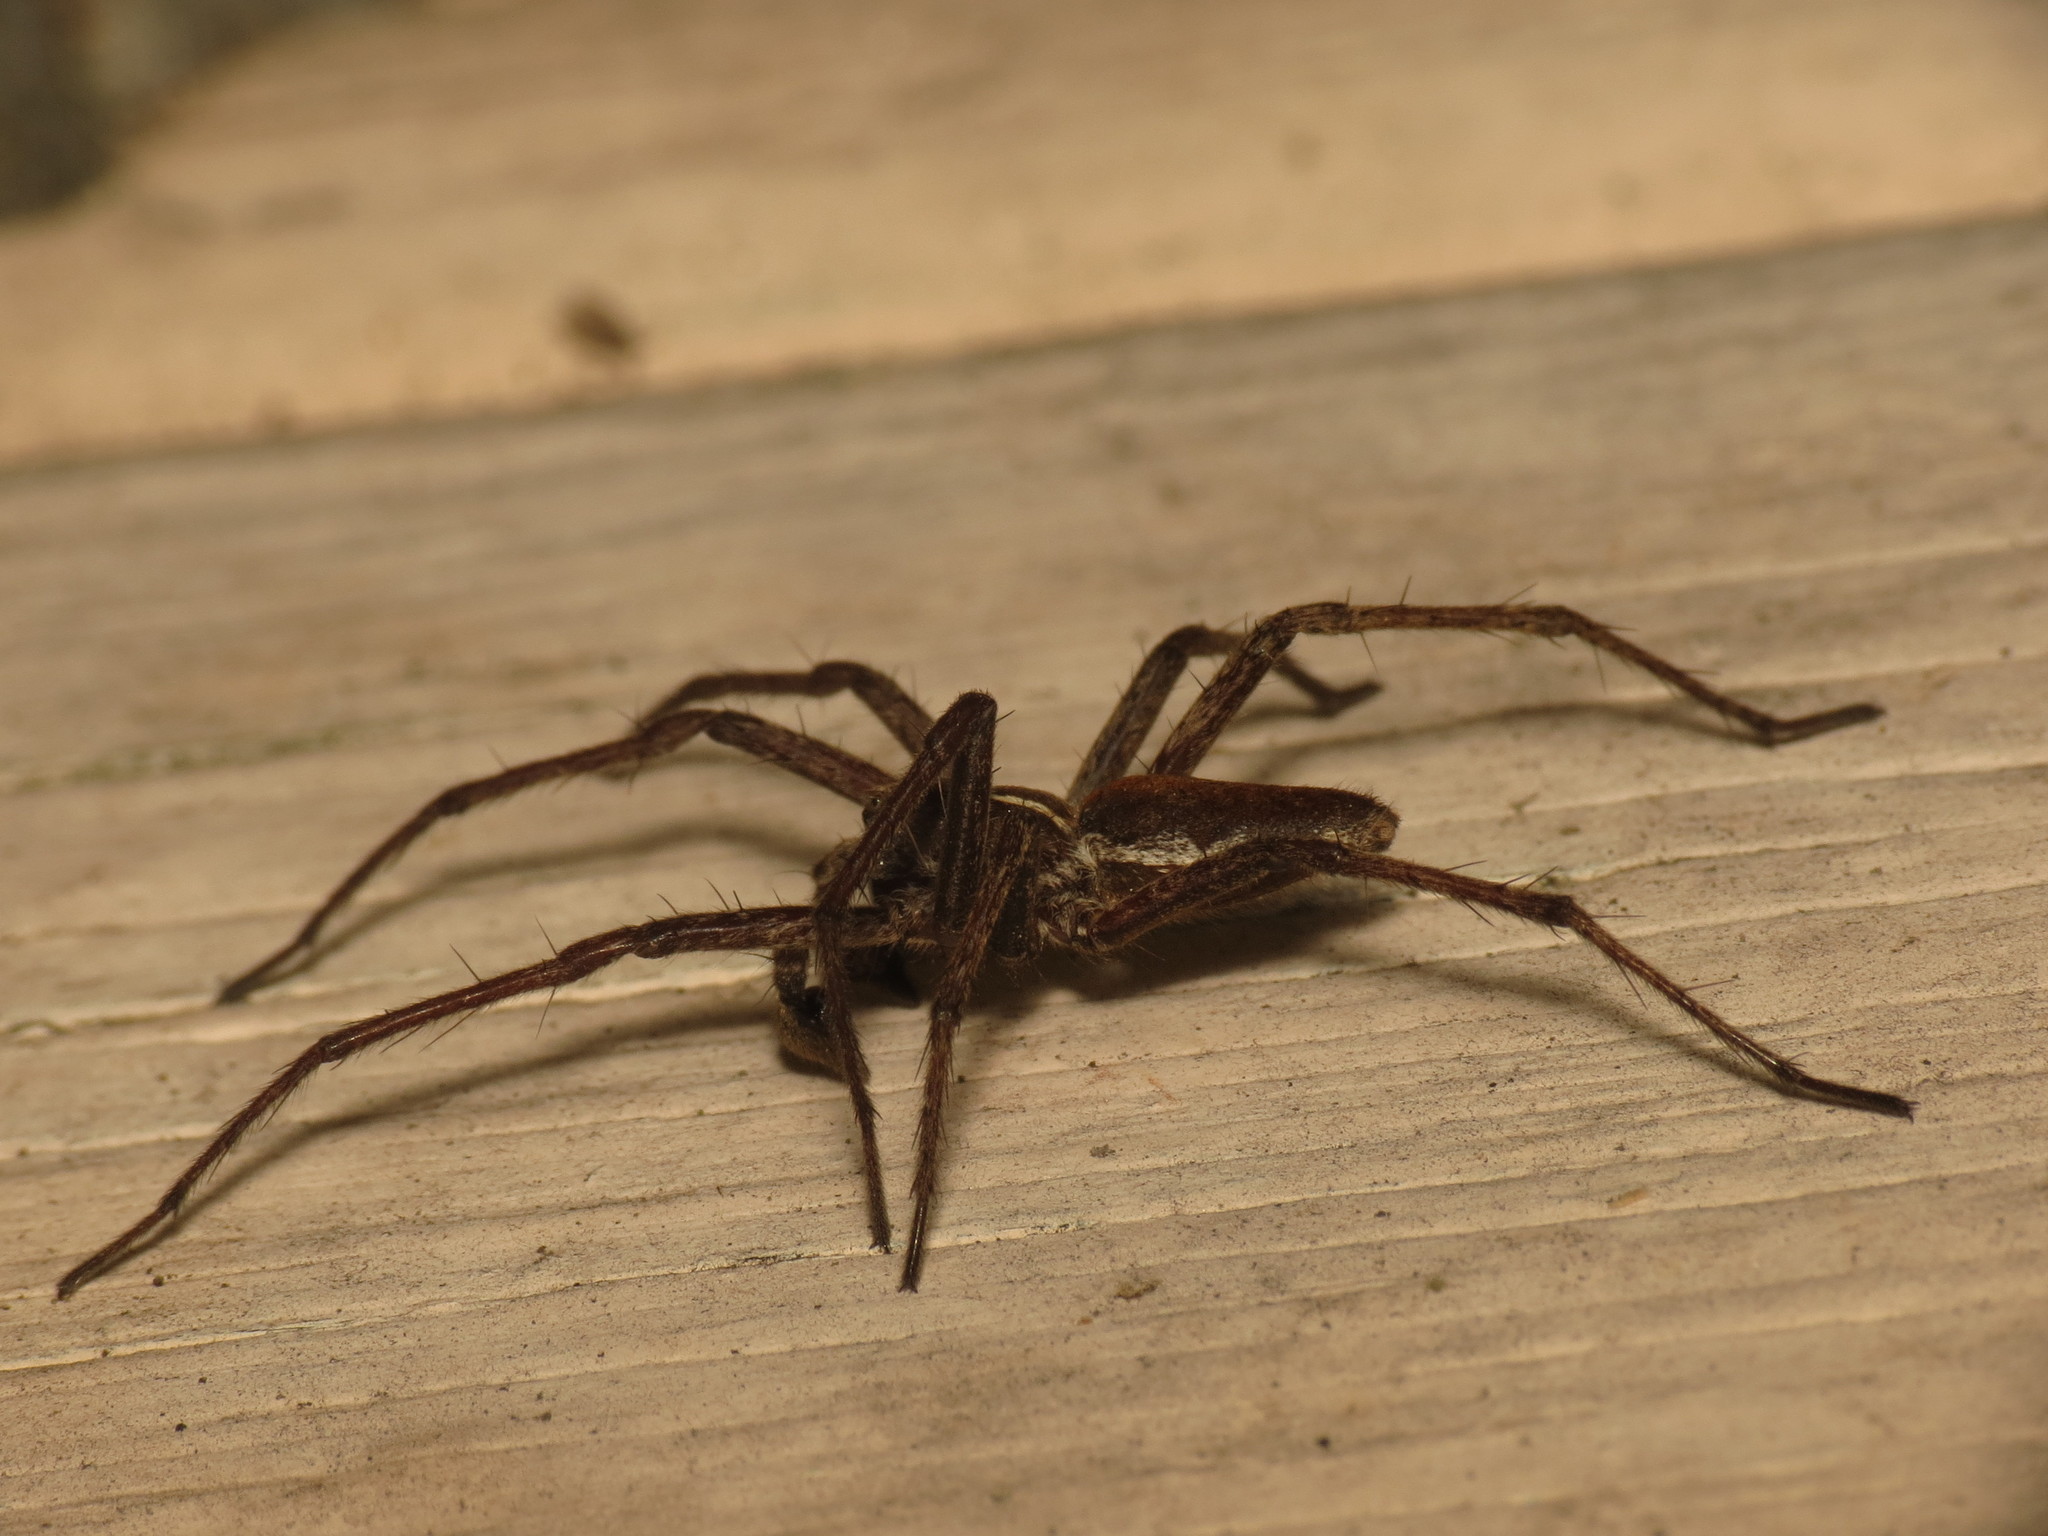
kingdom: Animalia
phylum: Arthropoda
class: Arachnida
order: Araneae
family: Pisauridae
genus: Pisaura
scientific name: Pisaura mirabilis
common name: Tent spider
